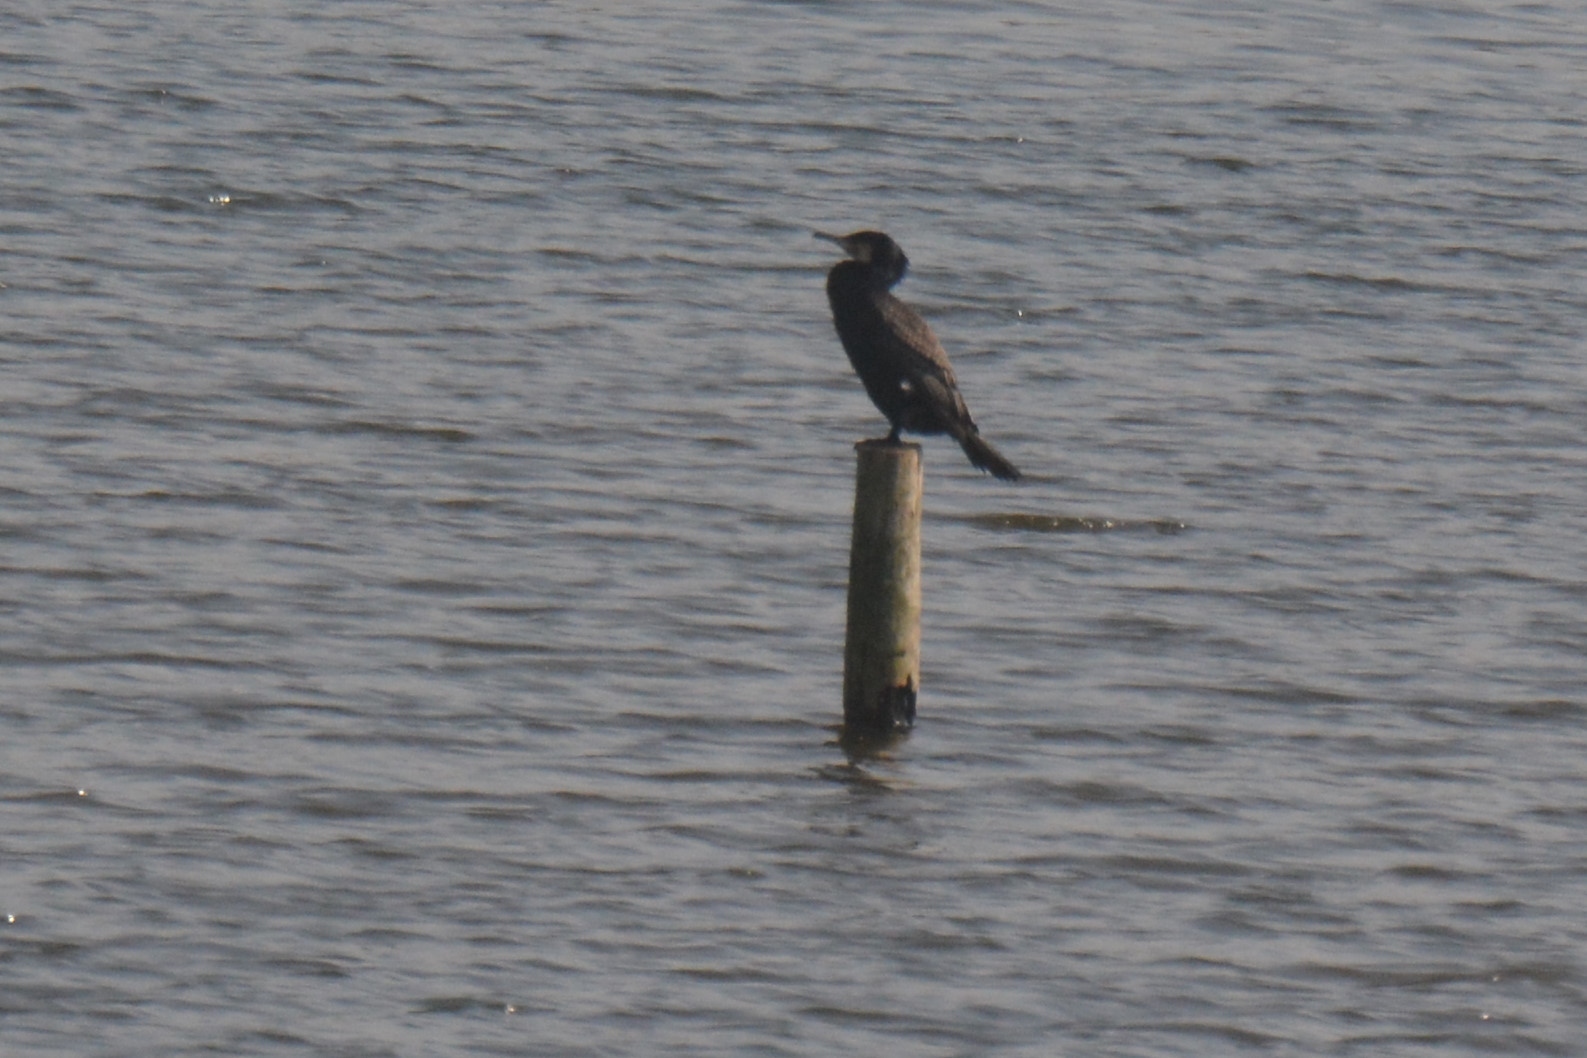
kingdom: Animalia
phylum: Chordata
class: Aves
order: Suliformes
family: Phalacrocoracidae
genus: Phalacrocorax
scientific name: Phalacrocorax carbo
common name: Great cormorant
